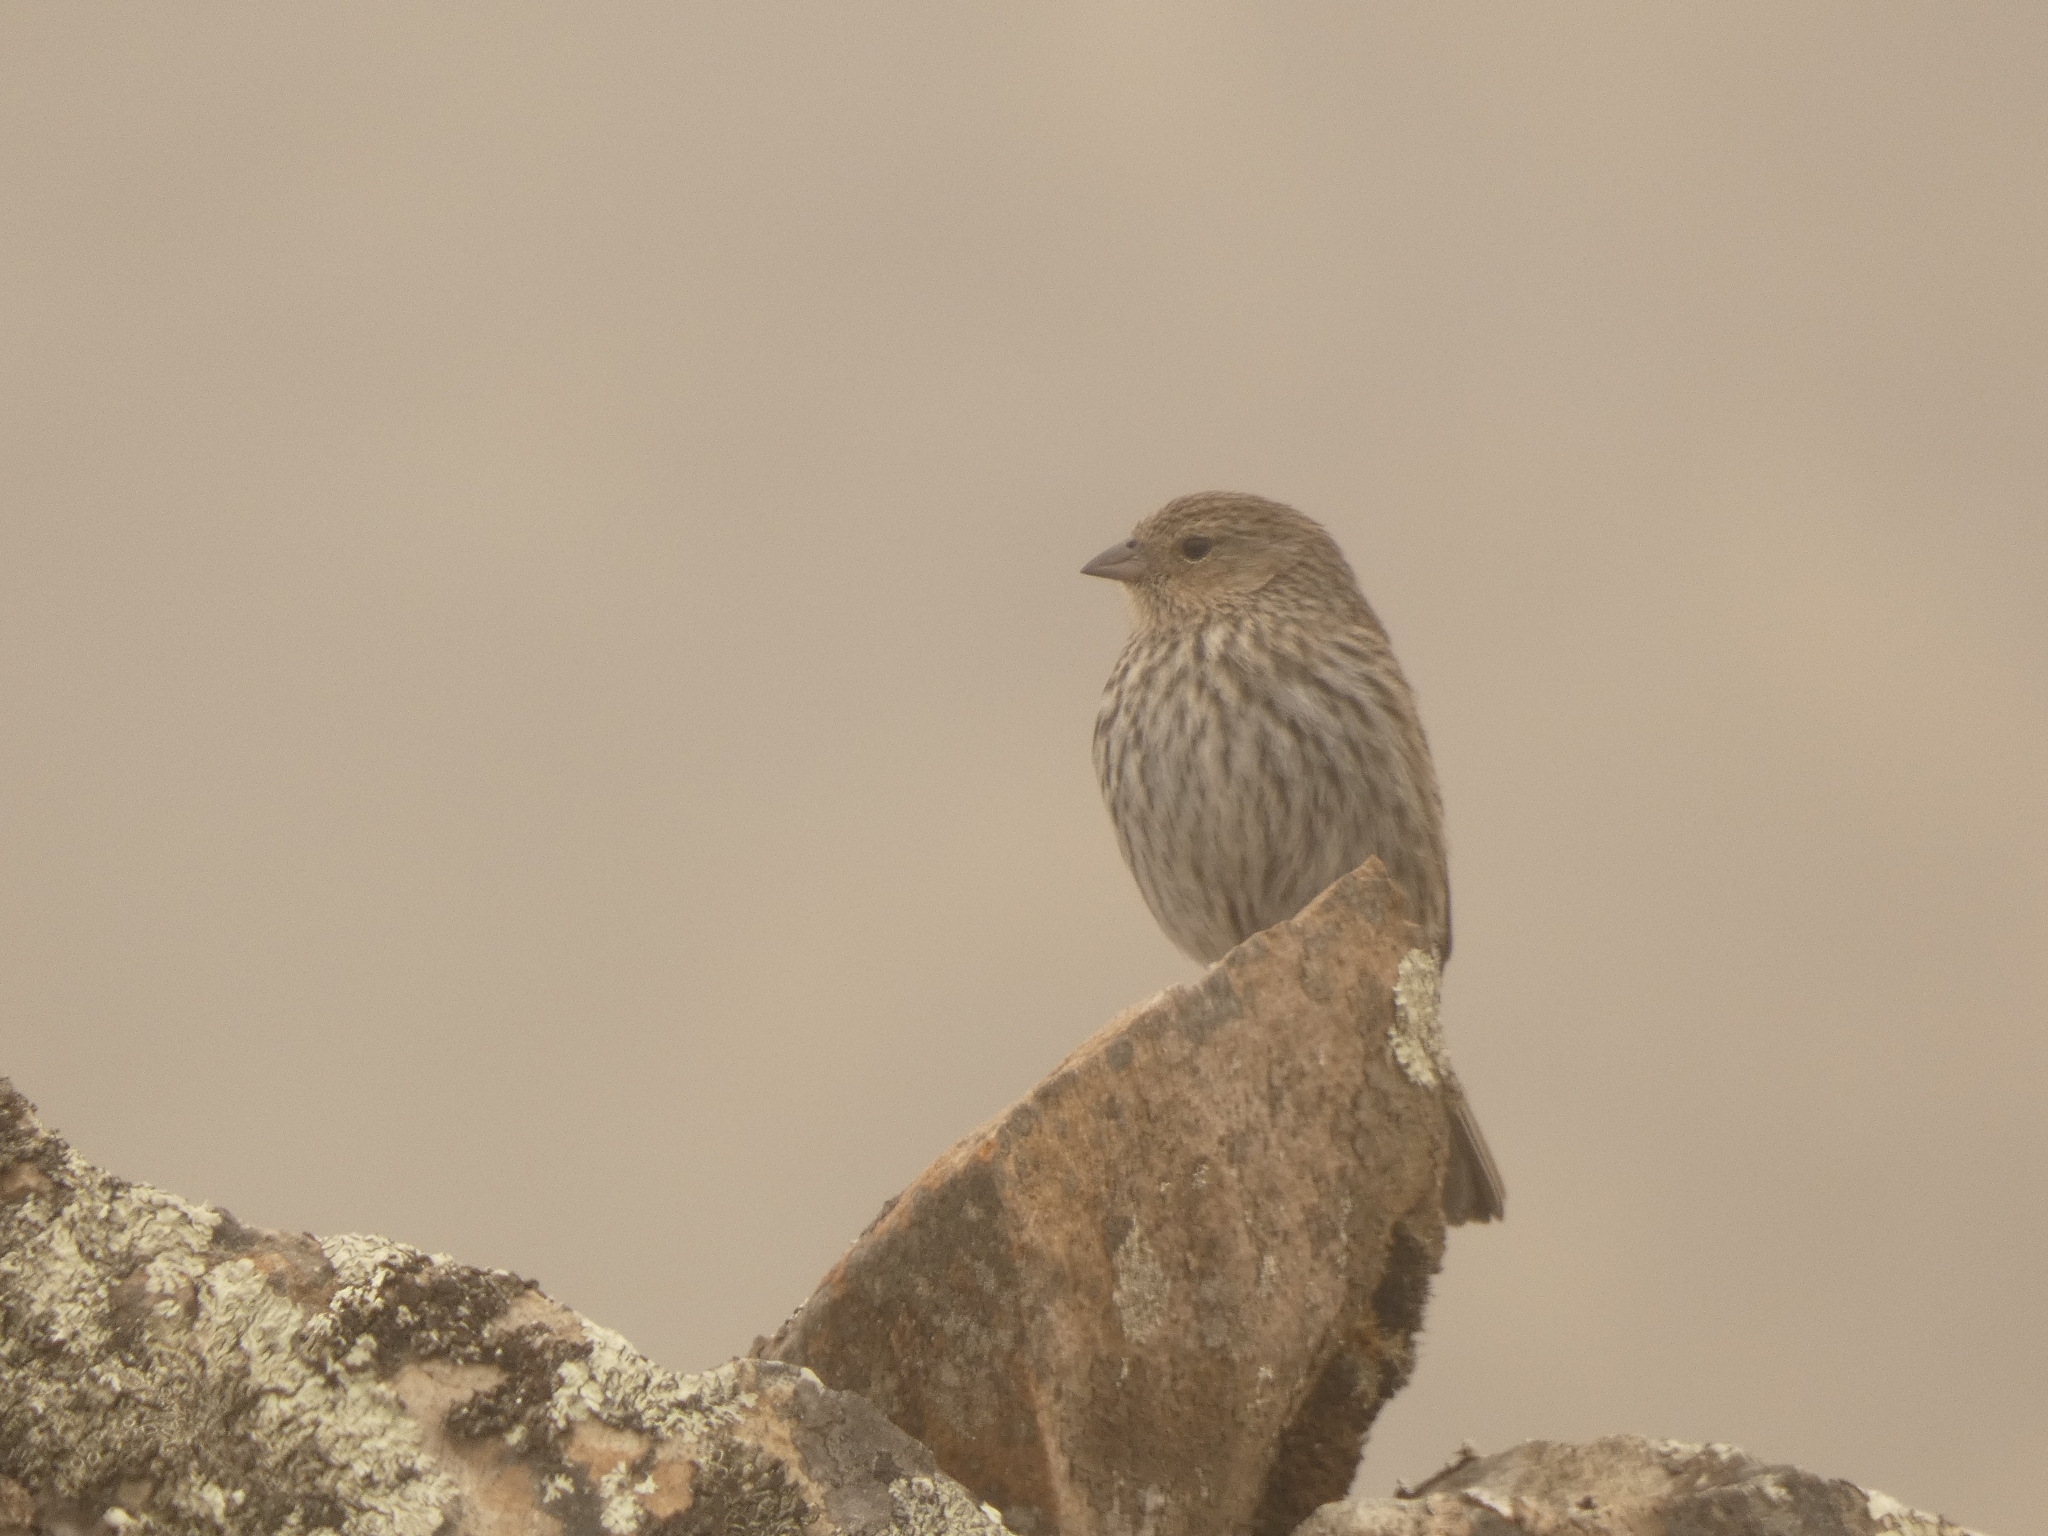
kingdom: Animalia
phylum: Chordata
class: Aves
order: Passeriformes
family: Thraupidae
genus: Geospizopsis
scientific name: Geospizopsis unicolor
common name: Plumbeous sierra-finch
